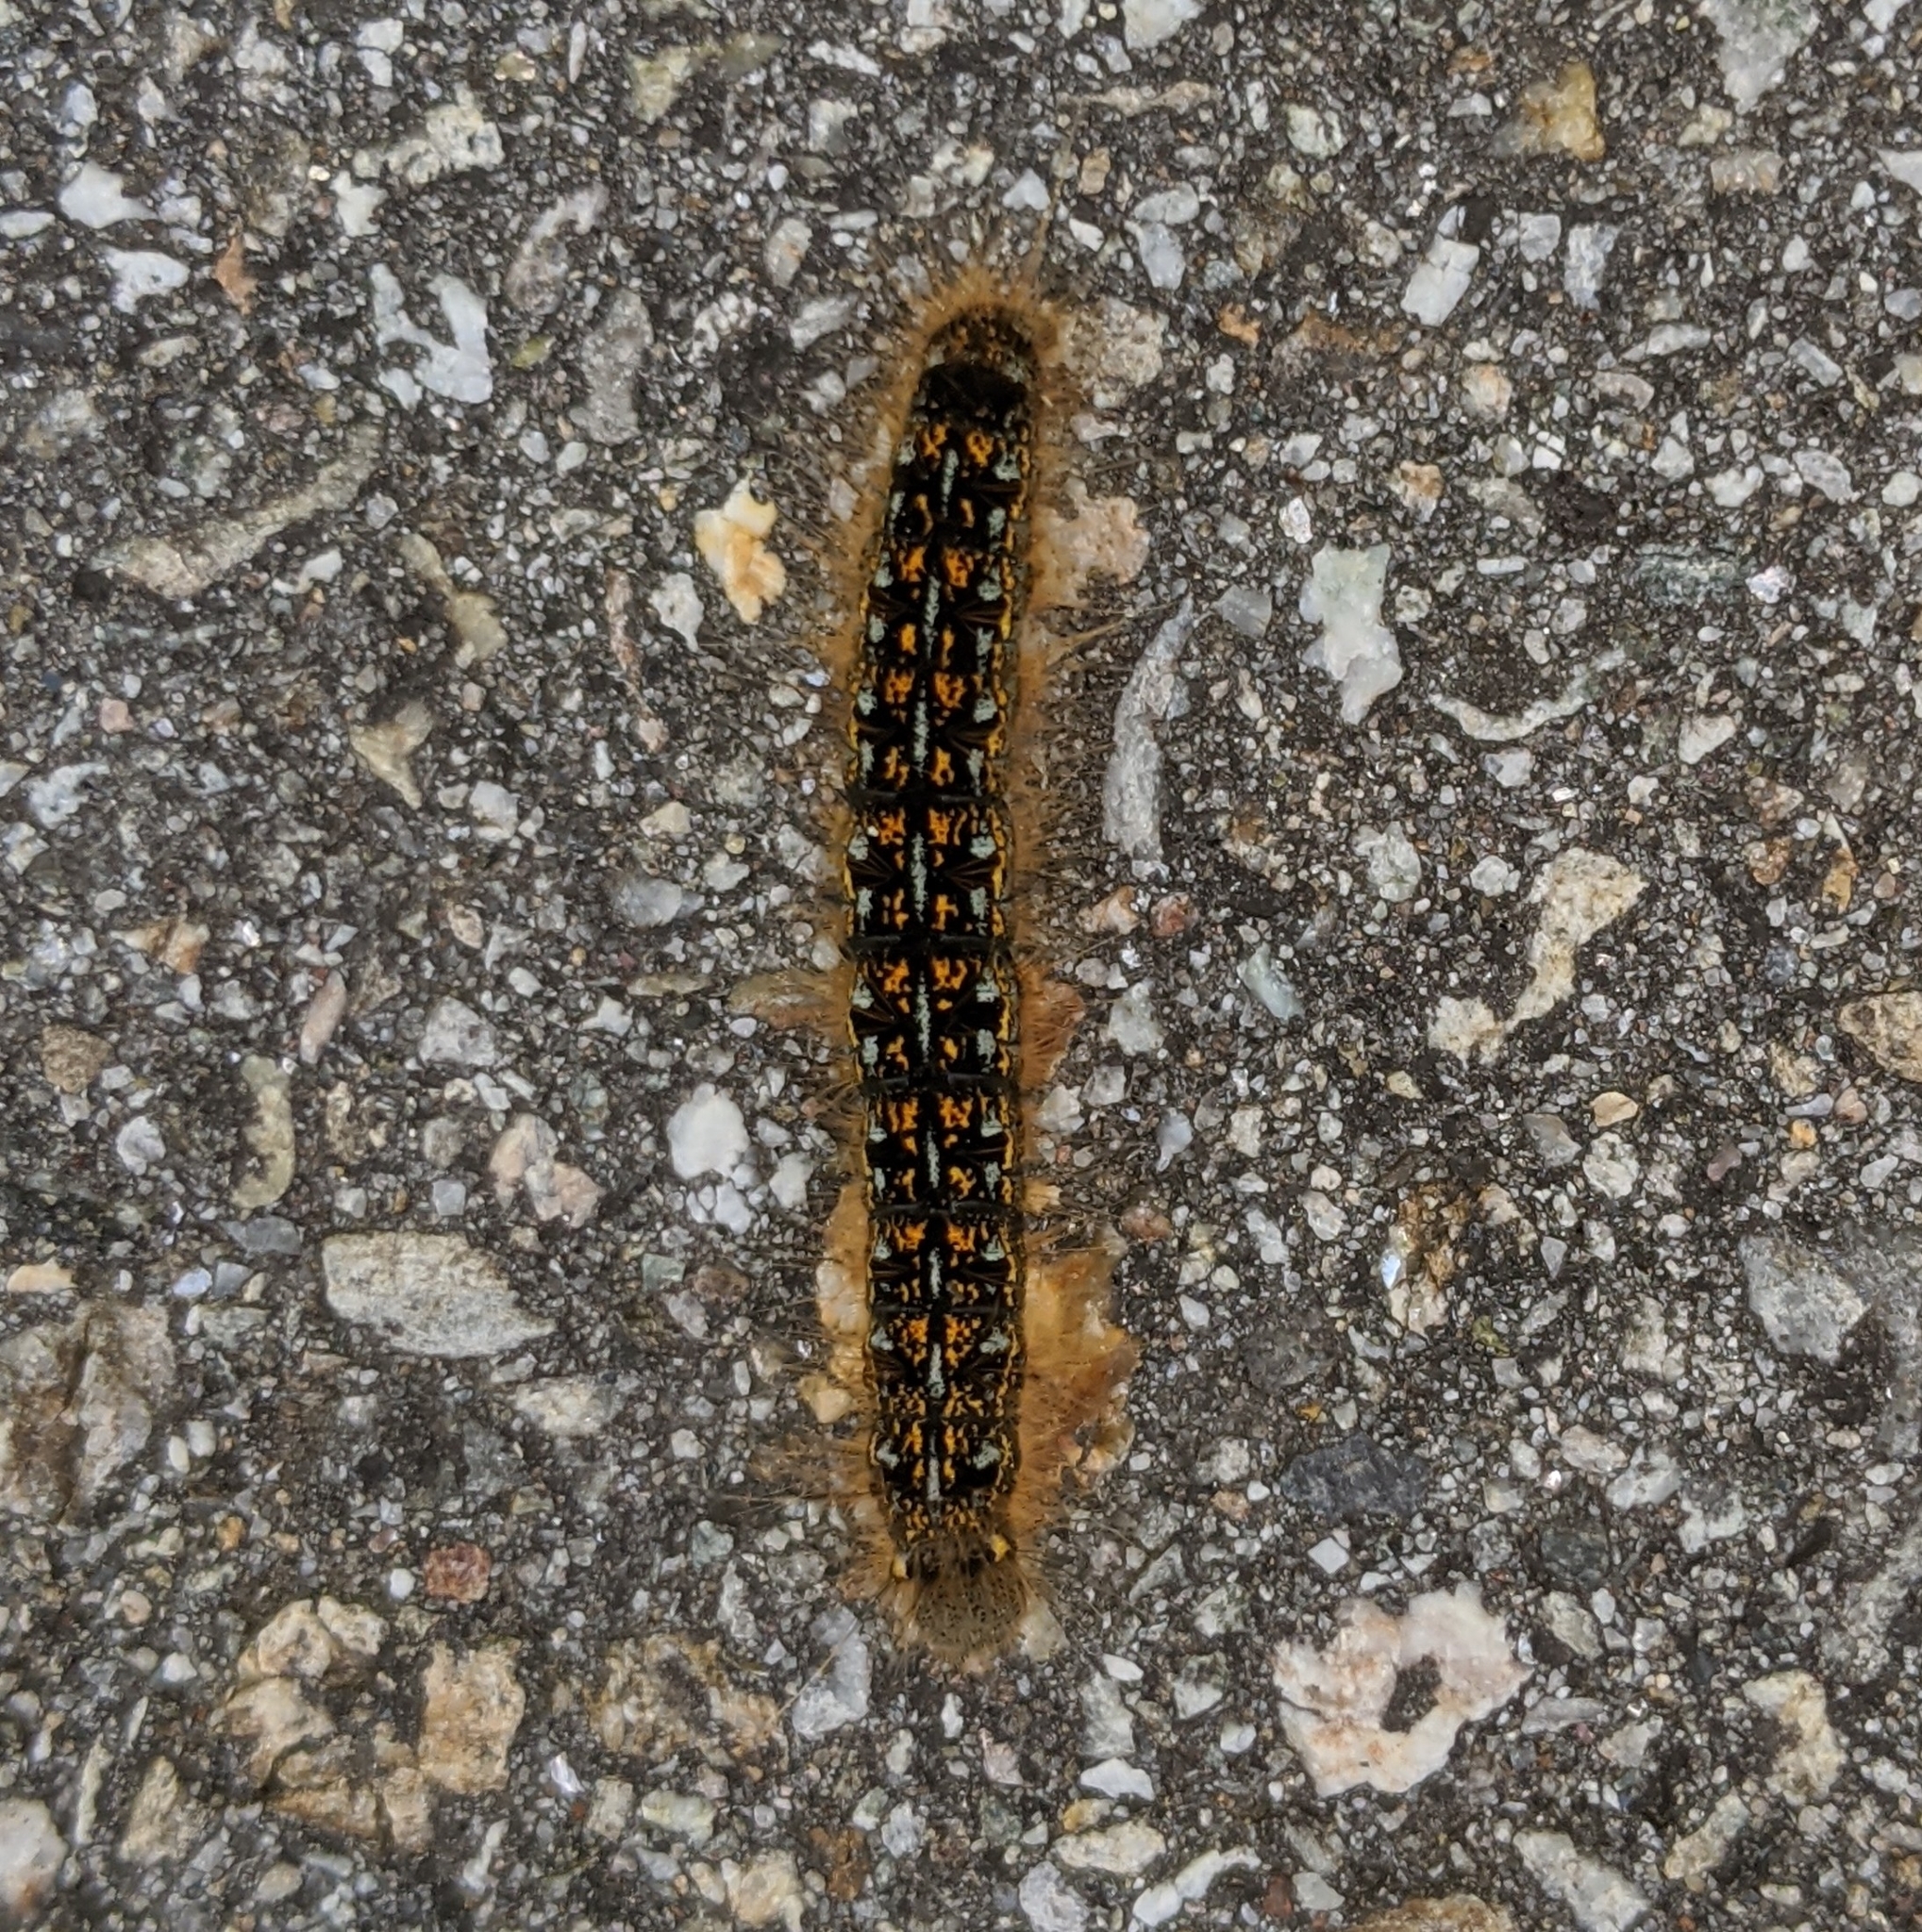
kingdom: Animalia
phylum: Arthropoda
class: Insecta
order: Lepidoptera
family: Lasiocampidae
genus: Malacosoma
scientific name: Malacosoma californica
